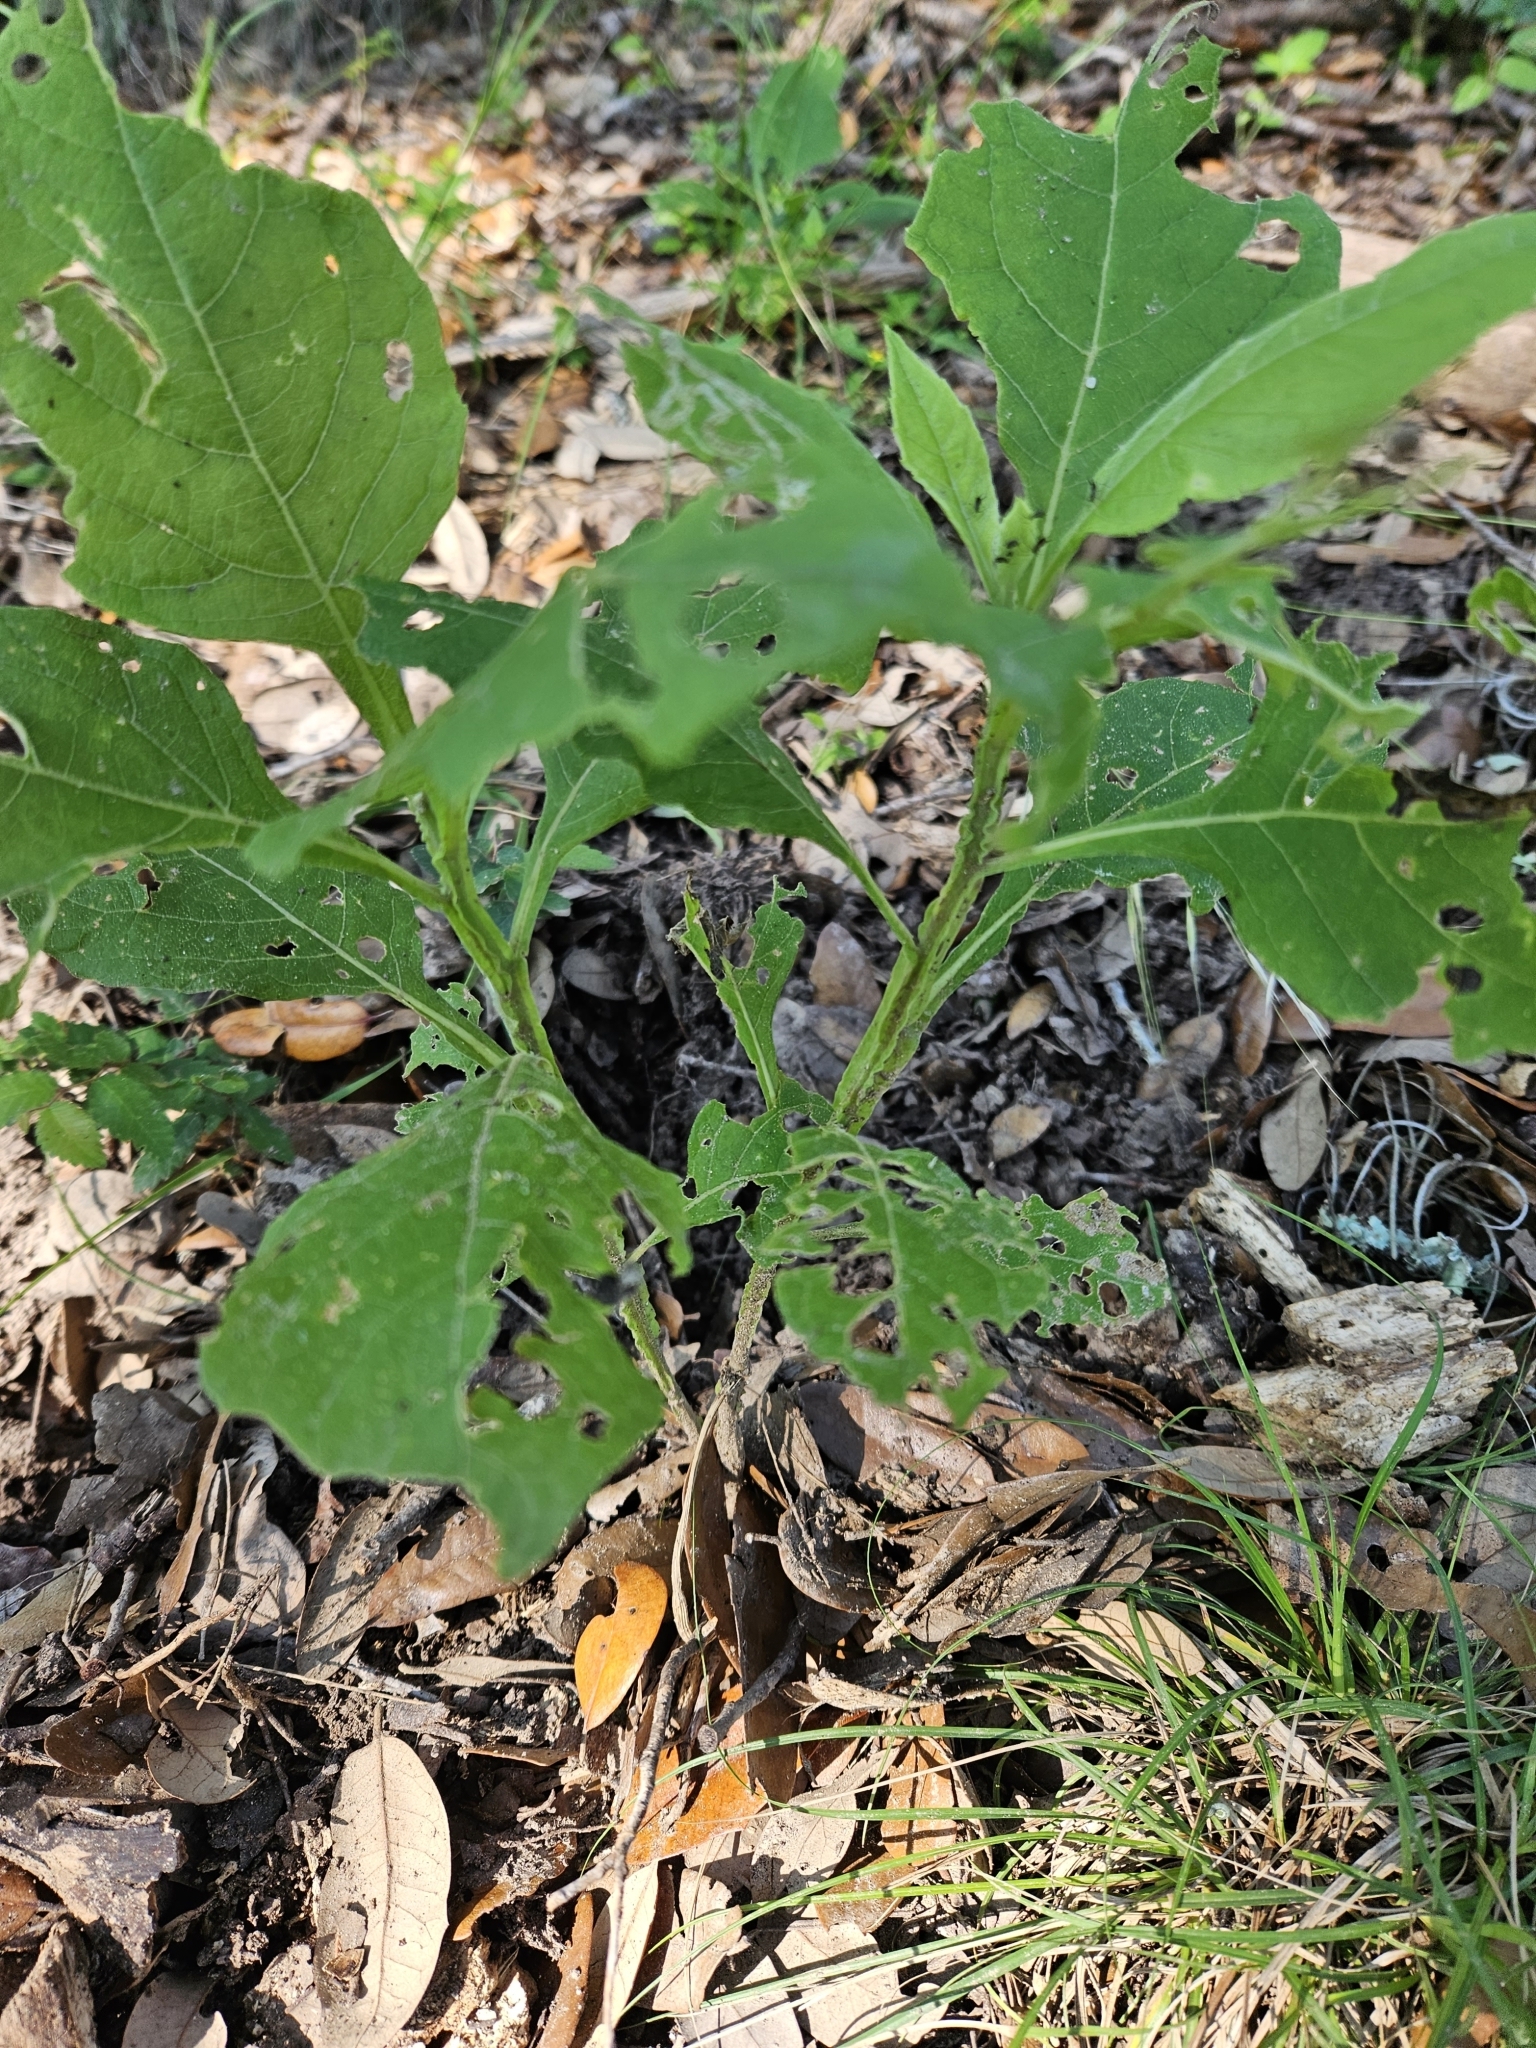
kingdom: Plantae
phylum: Tracheophyta
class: Magnoliopsida
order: Asterales
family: Asteraceae
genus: Verbesina
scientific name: Verbesina virginica
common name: Frostweed
